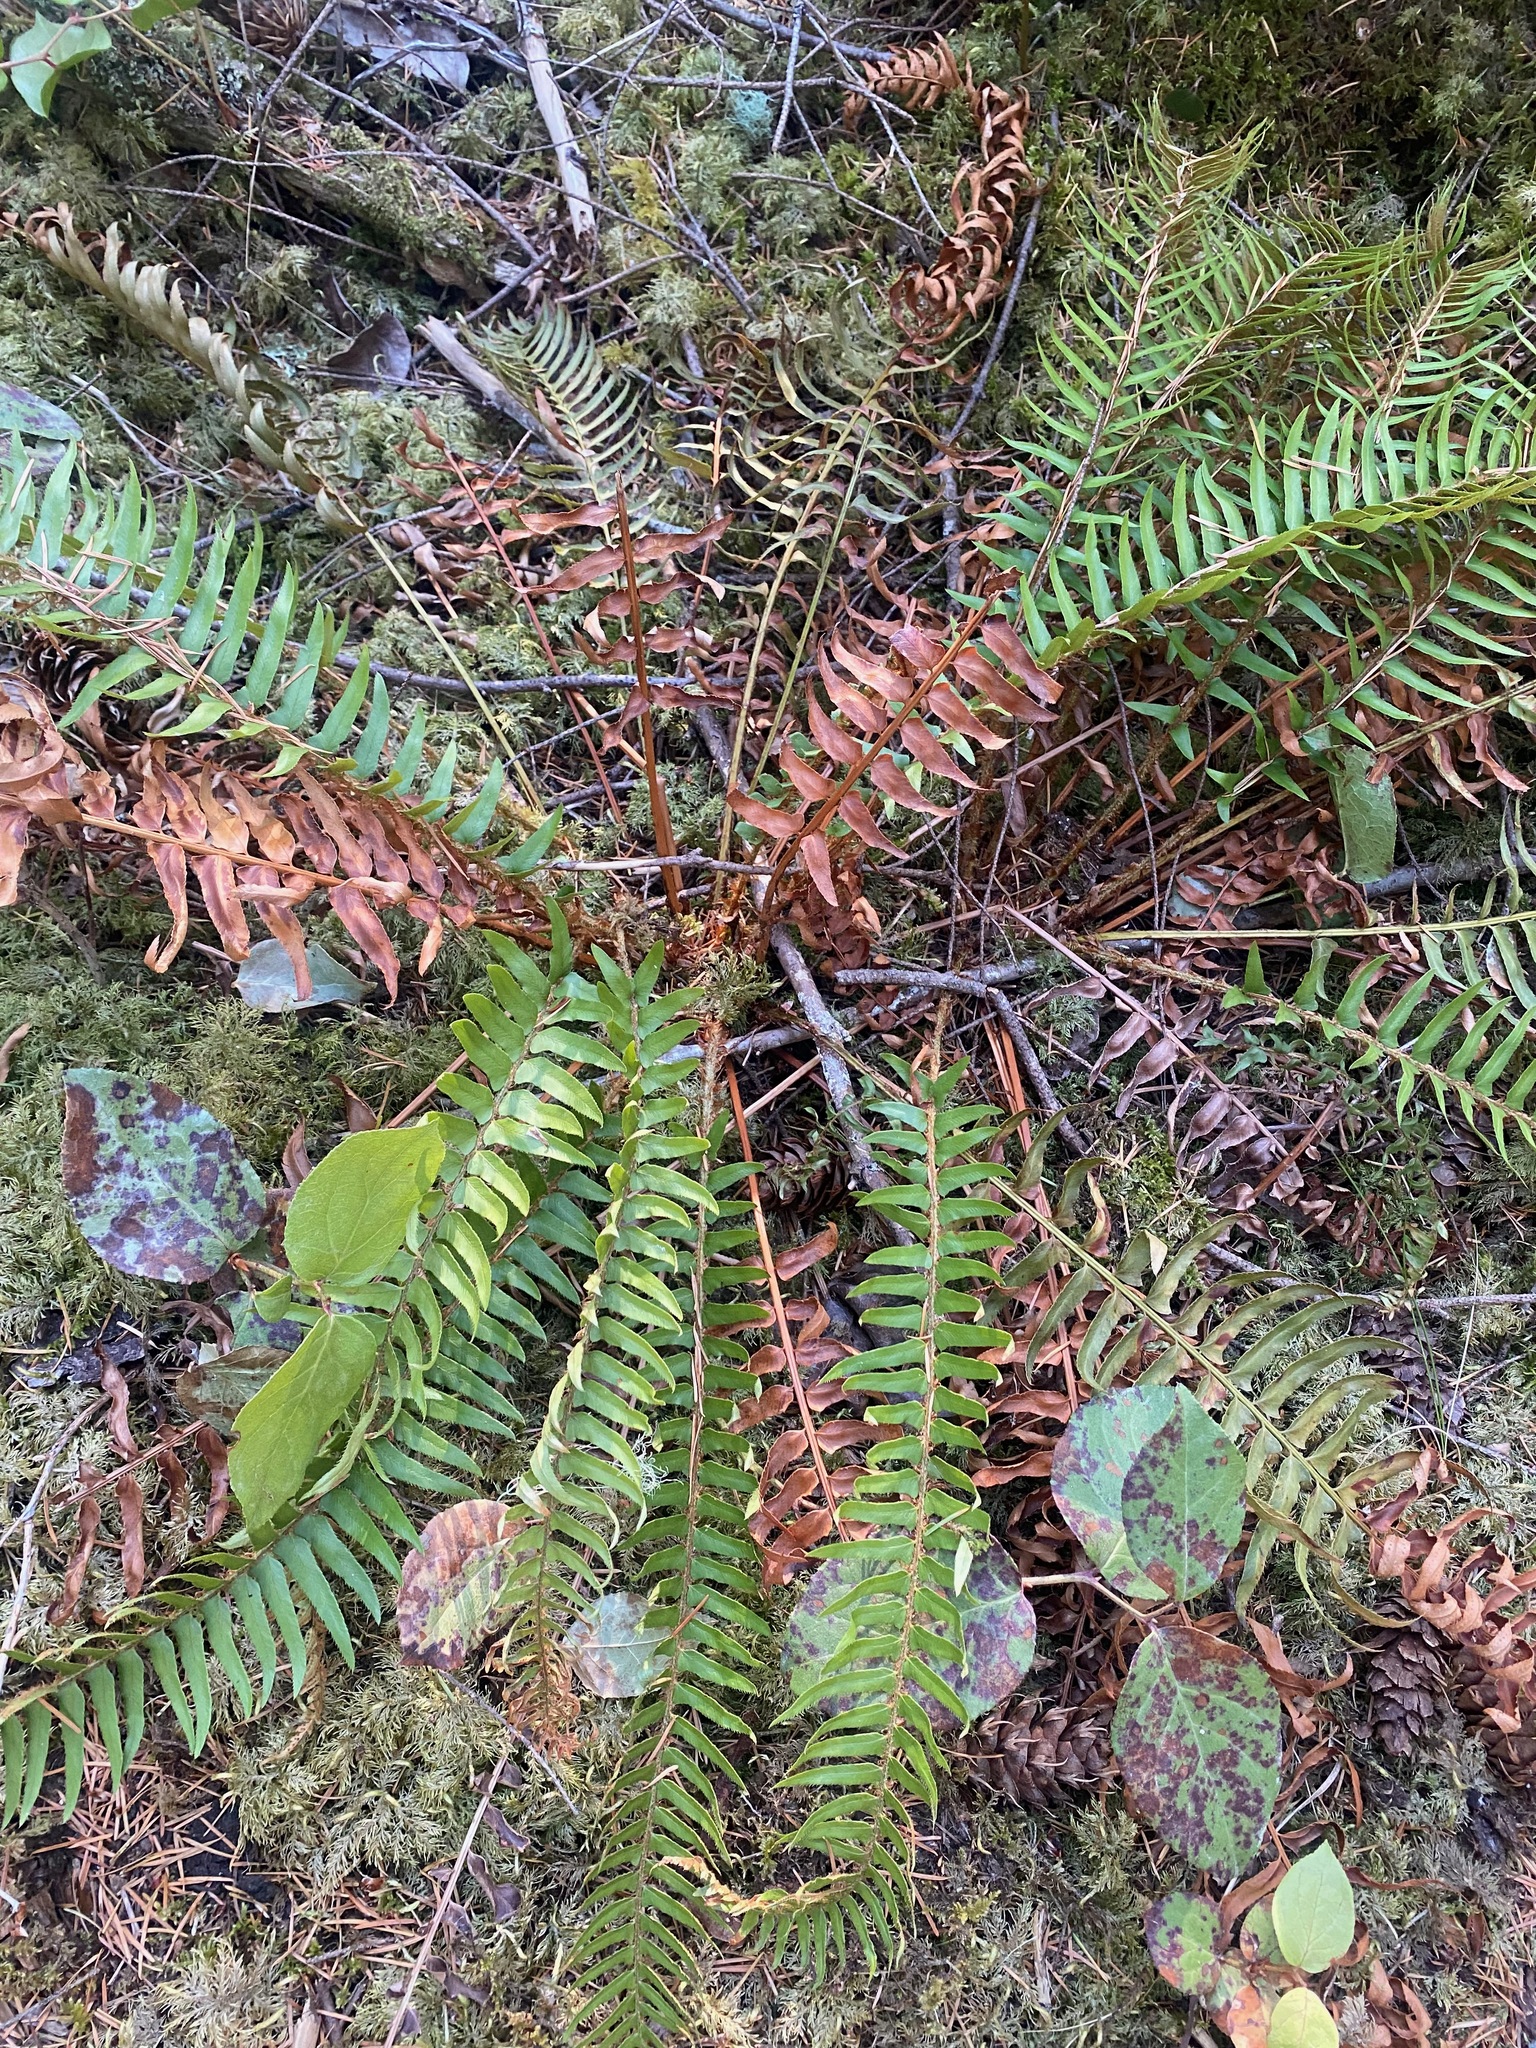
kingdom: Plantae
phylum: Tracheophyta
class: Polypodiopsida
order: Polypodiales
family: Dryopteridaceae
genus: Polystichum
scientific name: Polystichum munitum
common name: Western sword-fern
